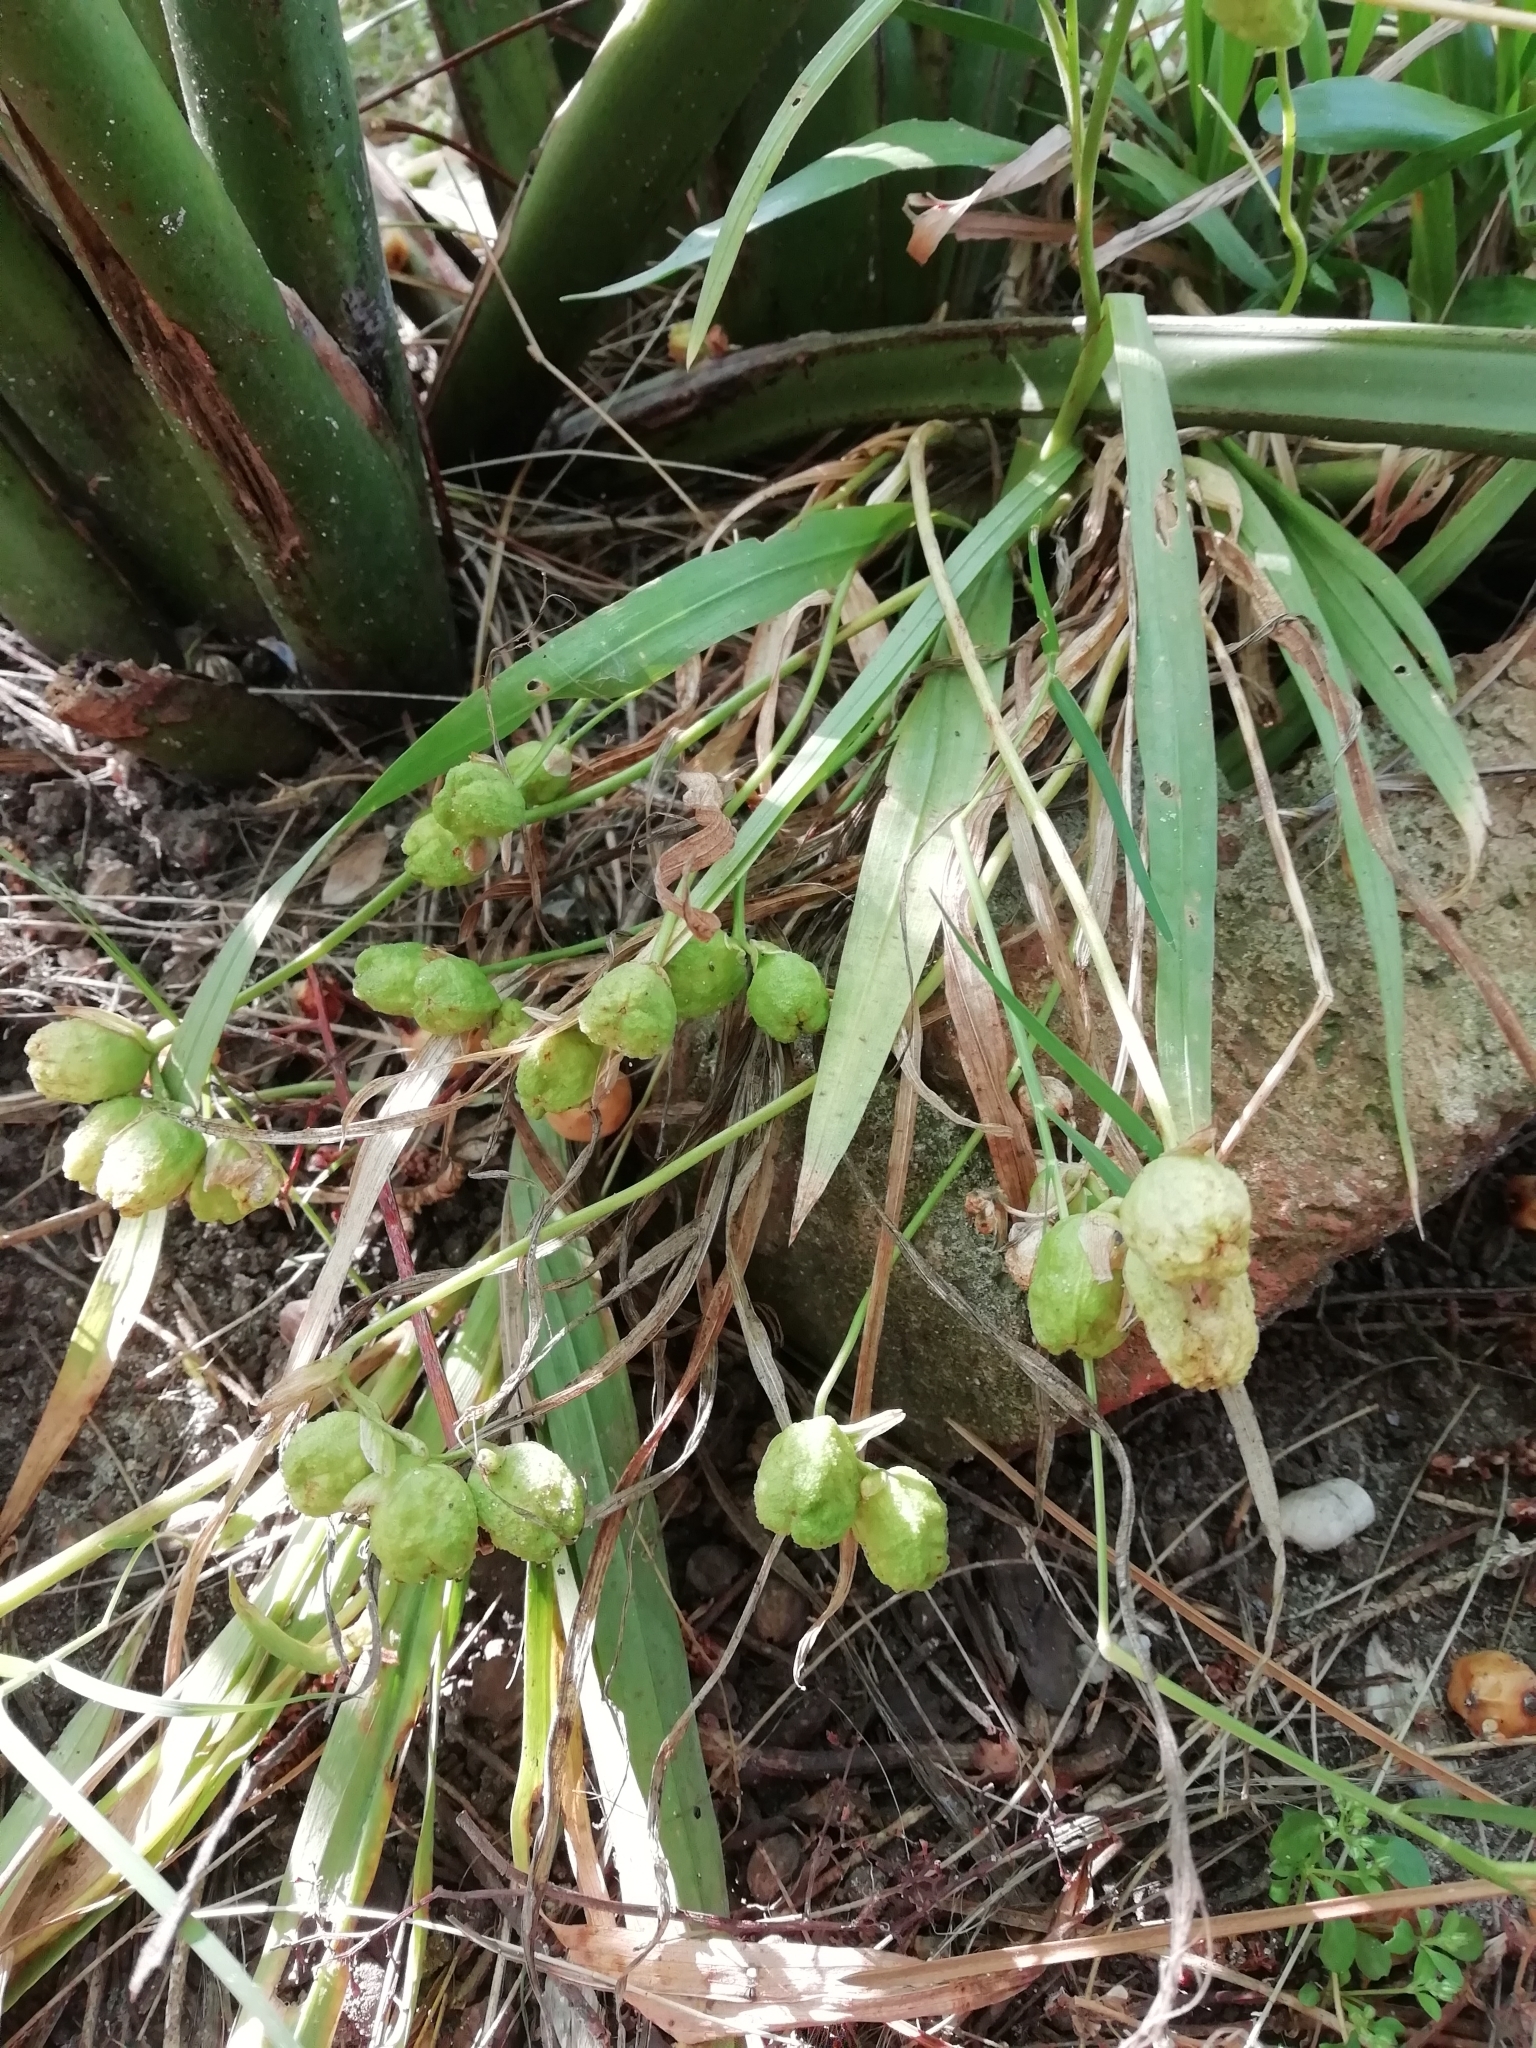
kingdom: Plantae
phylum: Tracheophyta
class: Liliopsida
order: Asparagales
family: Iridaceae
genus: Freesia
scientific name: Freesia laxa
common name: False freesia
